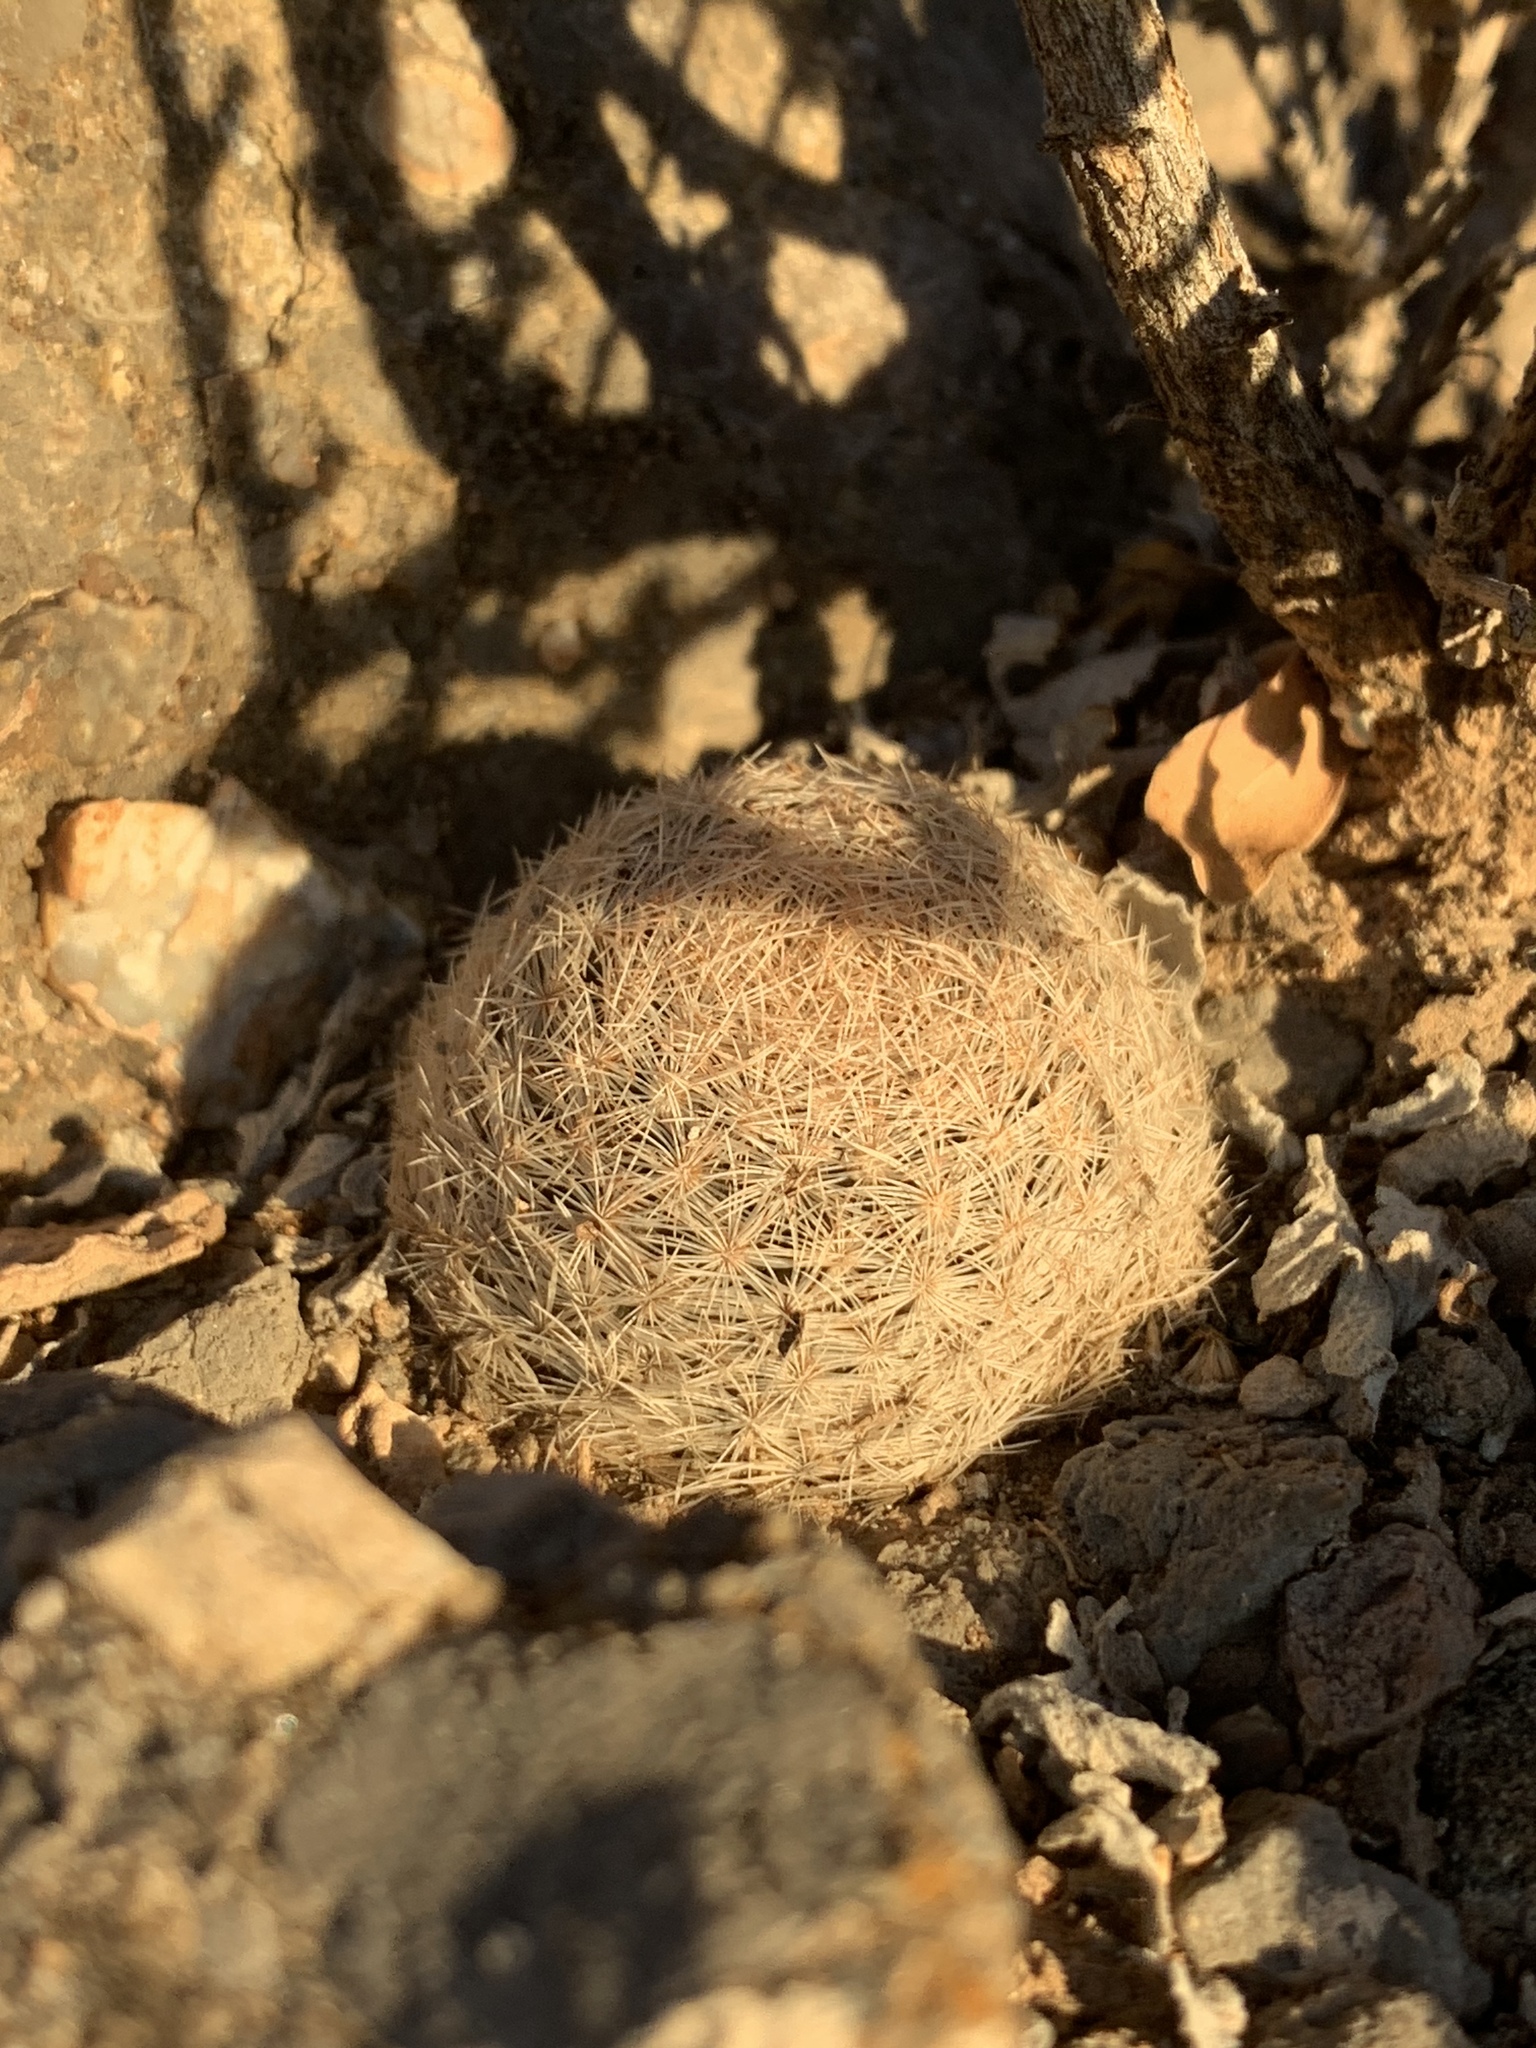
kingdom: Plantae
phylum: Tracheophyta
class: Magnoliopsida
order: Caryophyllales
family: Cactaceae
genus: Mammillaria
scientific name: Mammillaria lasiacantha
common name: Lace-spine nipple cactus
